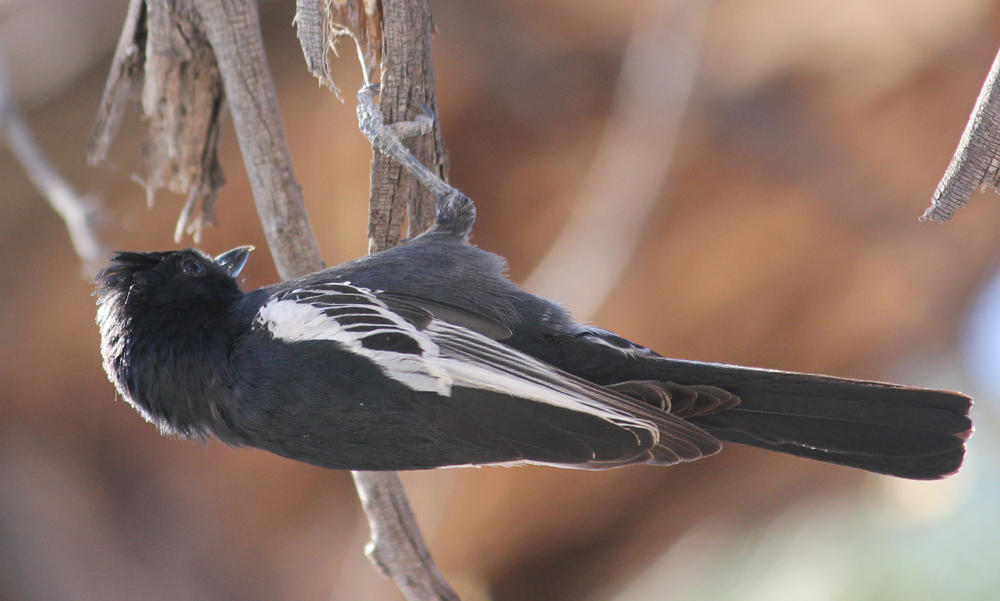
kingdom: Animalia
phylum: Chordata
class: Aves
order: Passeriformes
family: Paridae
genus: Parus
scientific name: Parus niger
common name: Southern black tit
